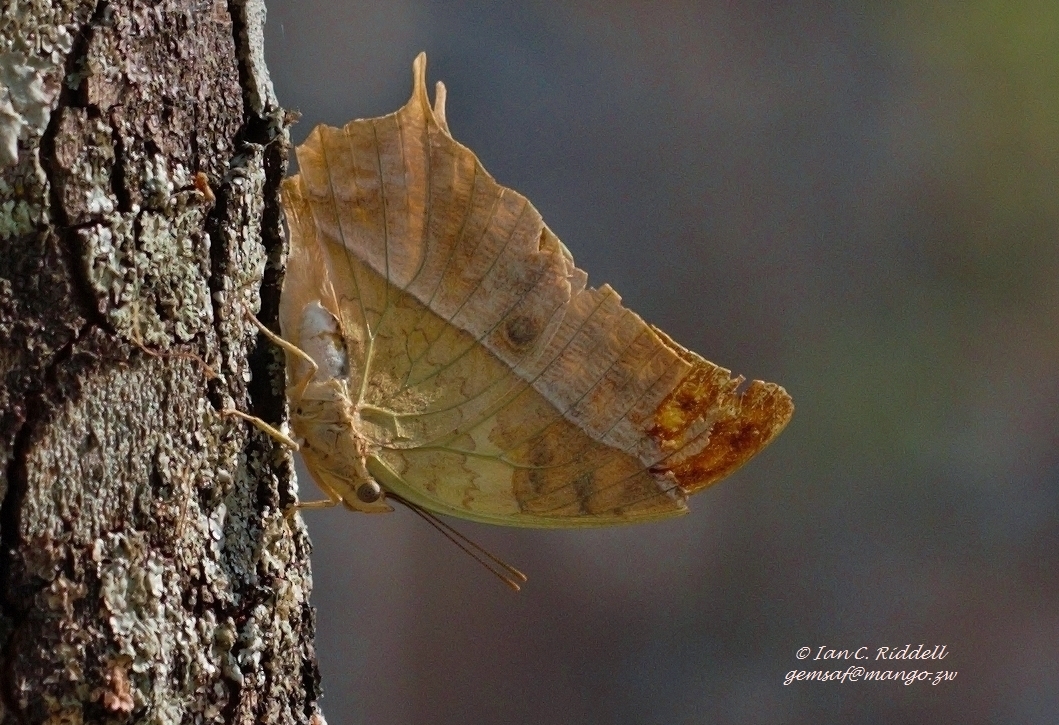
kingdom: Animalia
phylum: Arthropoda
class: Insecta
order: Lepidoptera
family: Nymphalidae
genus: Charaxes
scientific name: Charaxes varanes
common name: Common pearl charaxes
